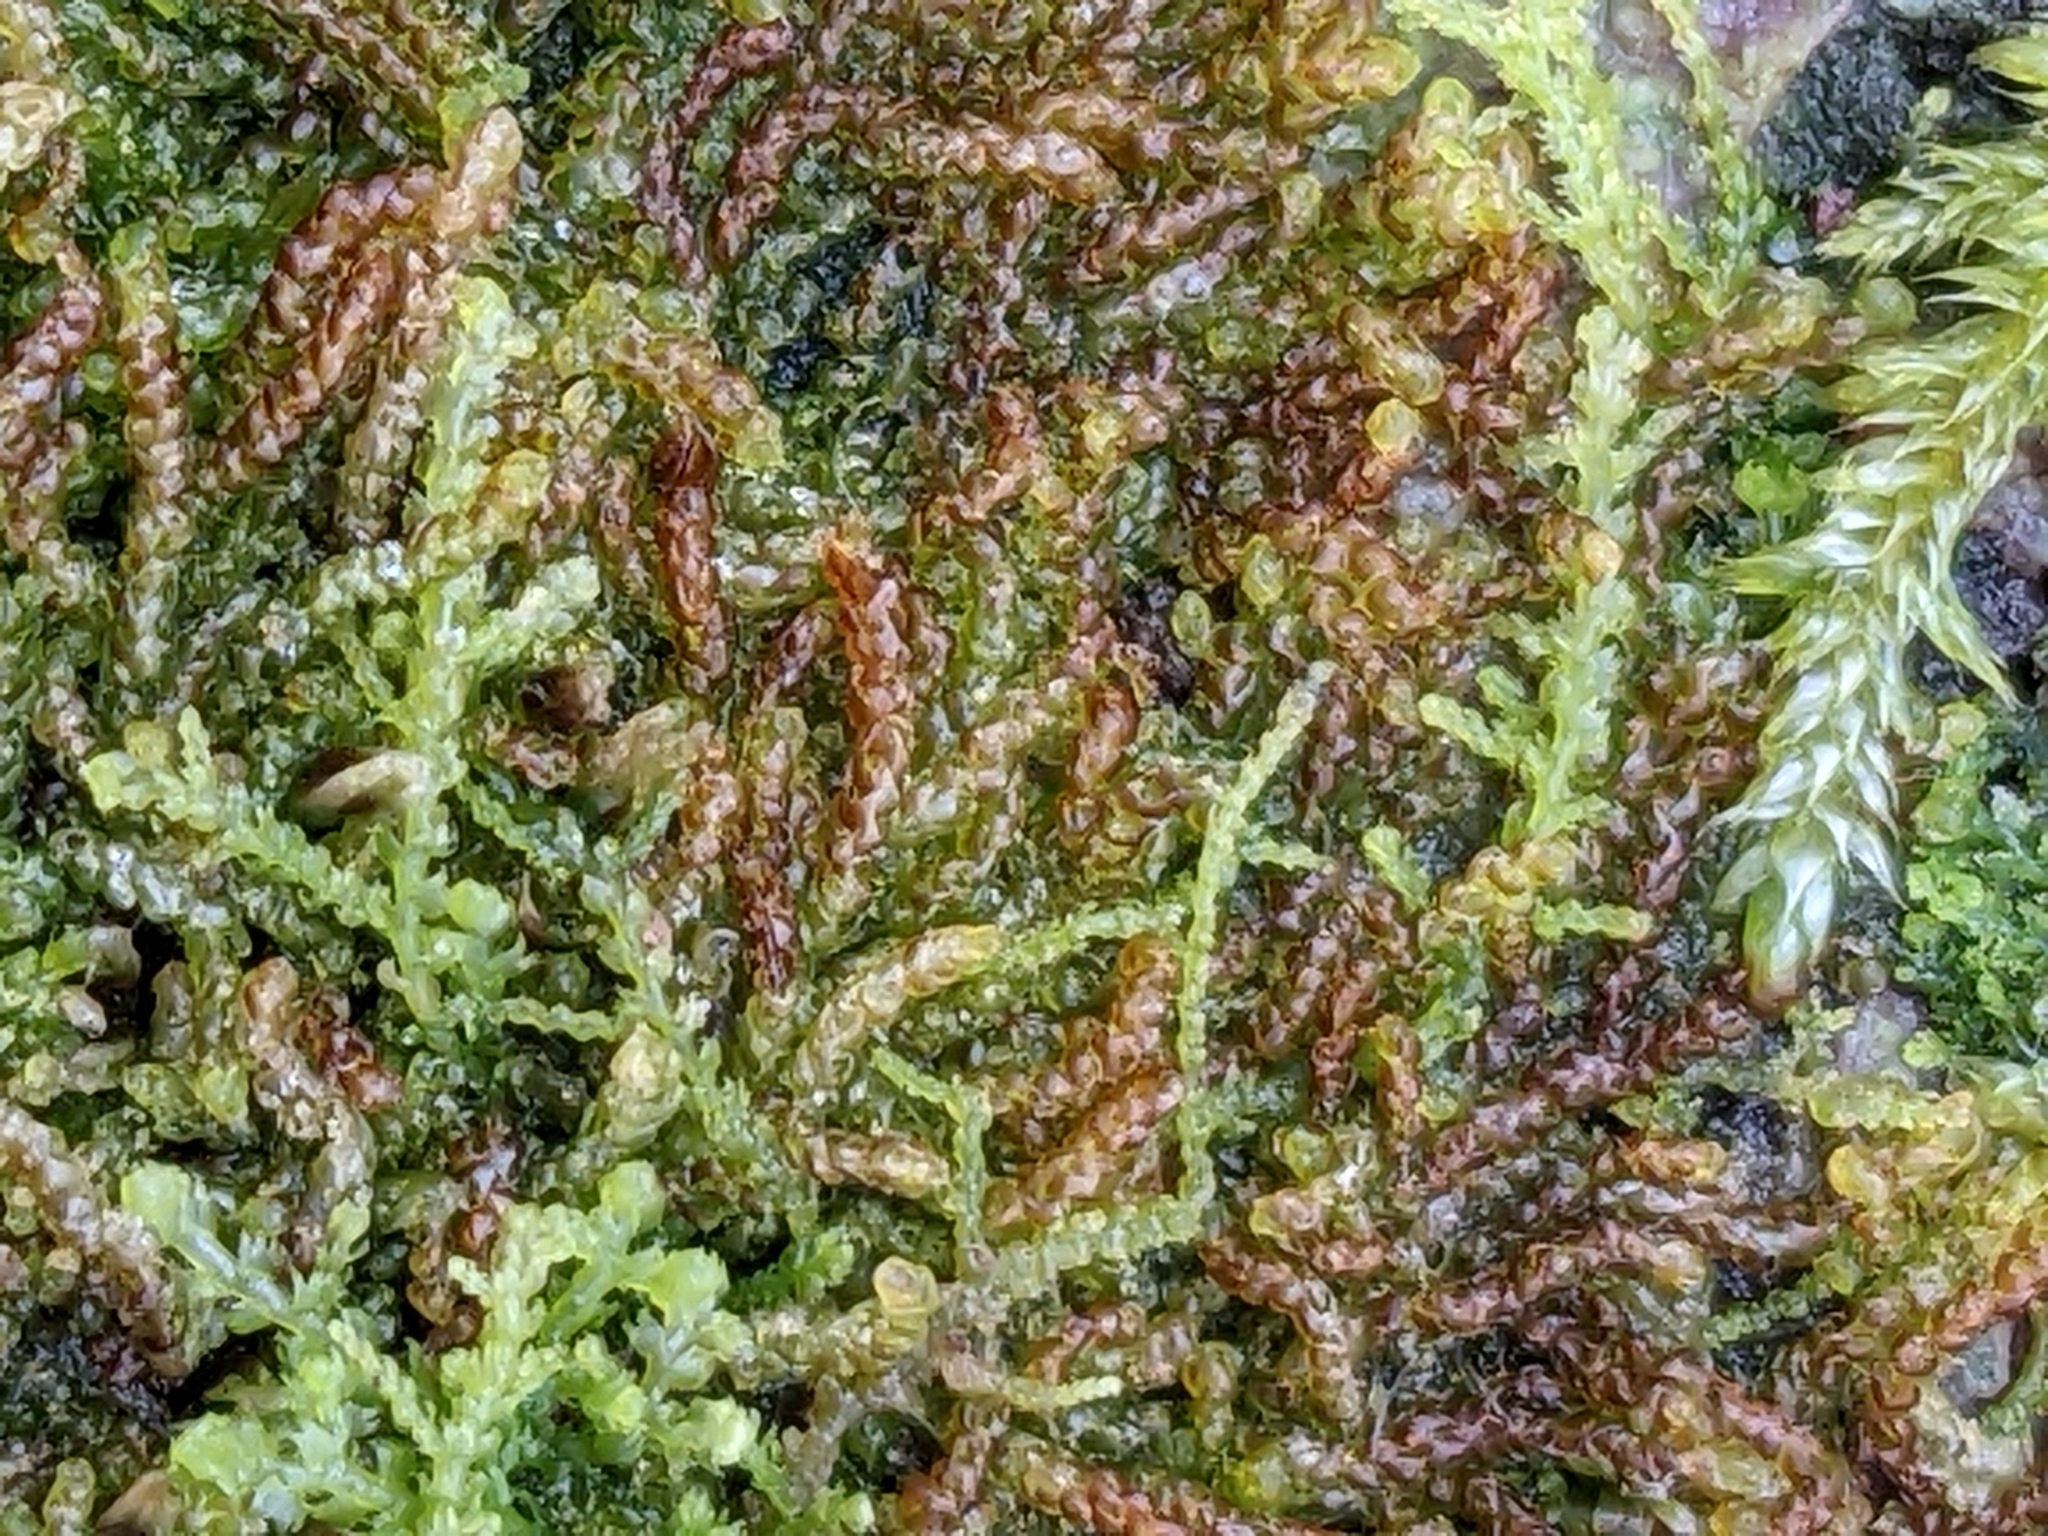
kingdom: Plantae
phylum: Marchantiophyta
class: Jungermanniopsida
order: Jungermanniales
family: Cephaloziaceae
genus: Nowellia
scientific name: Nowellia curvifolia
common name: Wood rustwort
